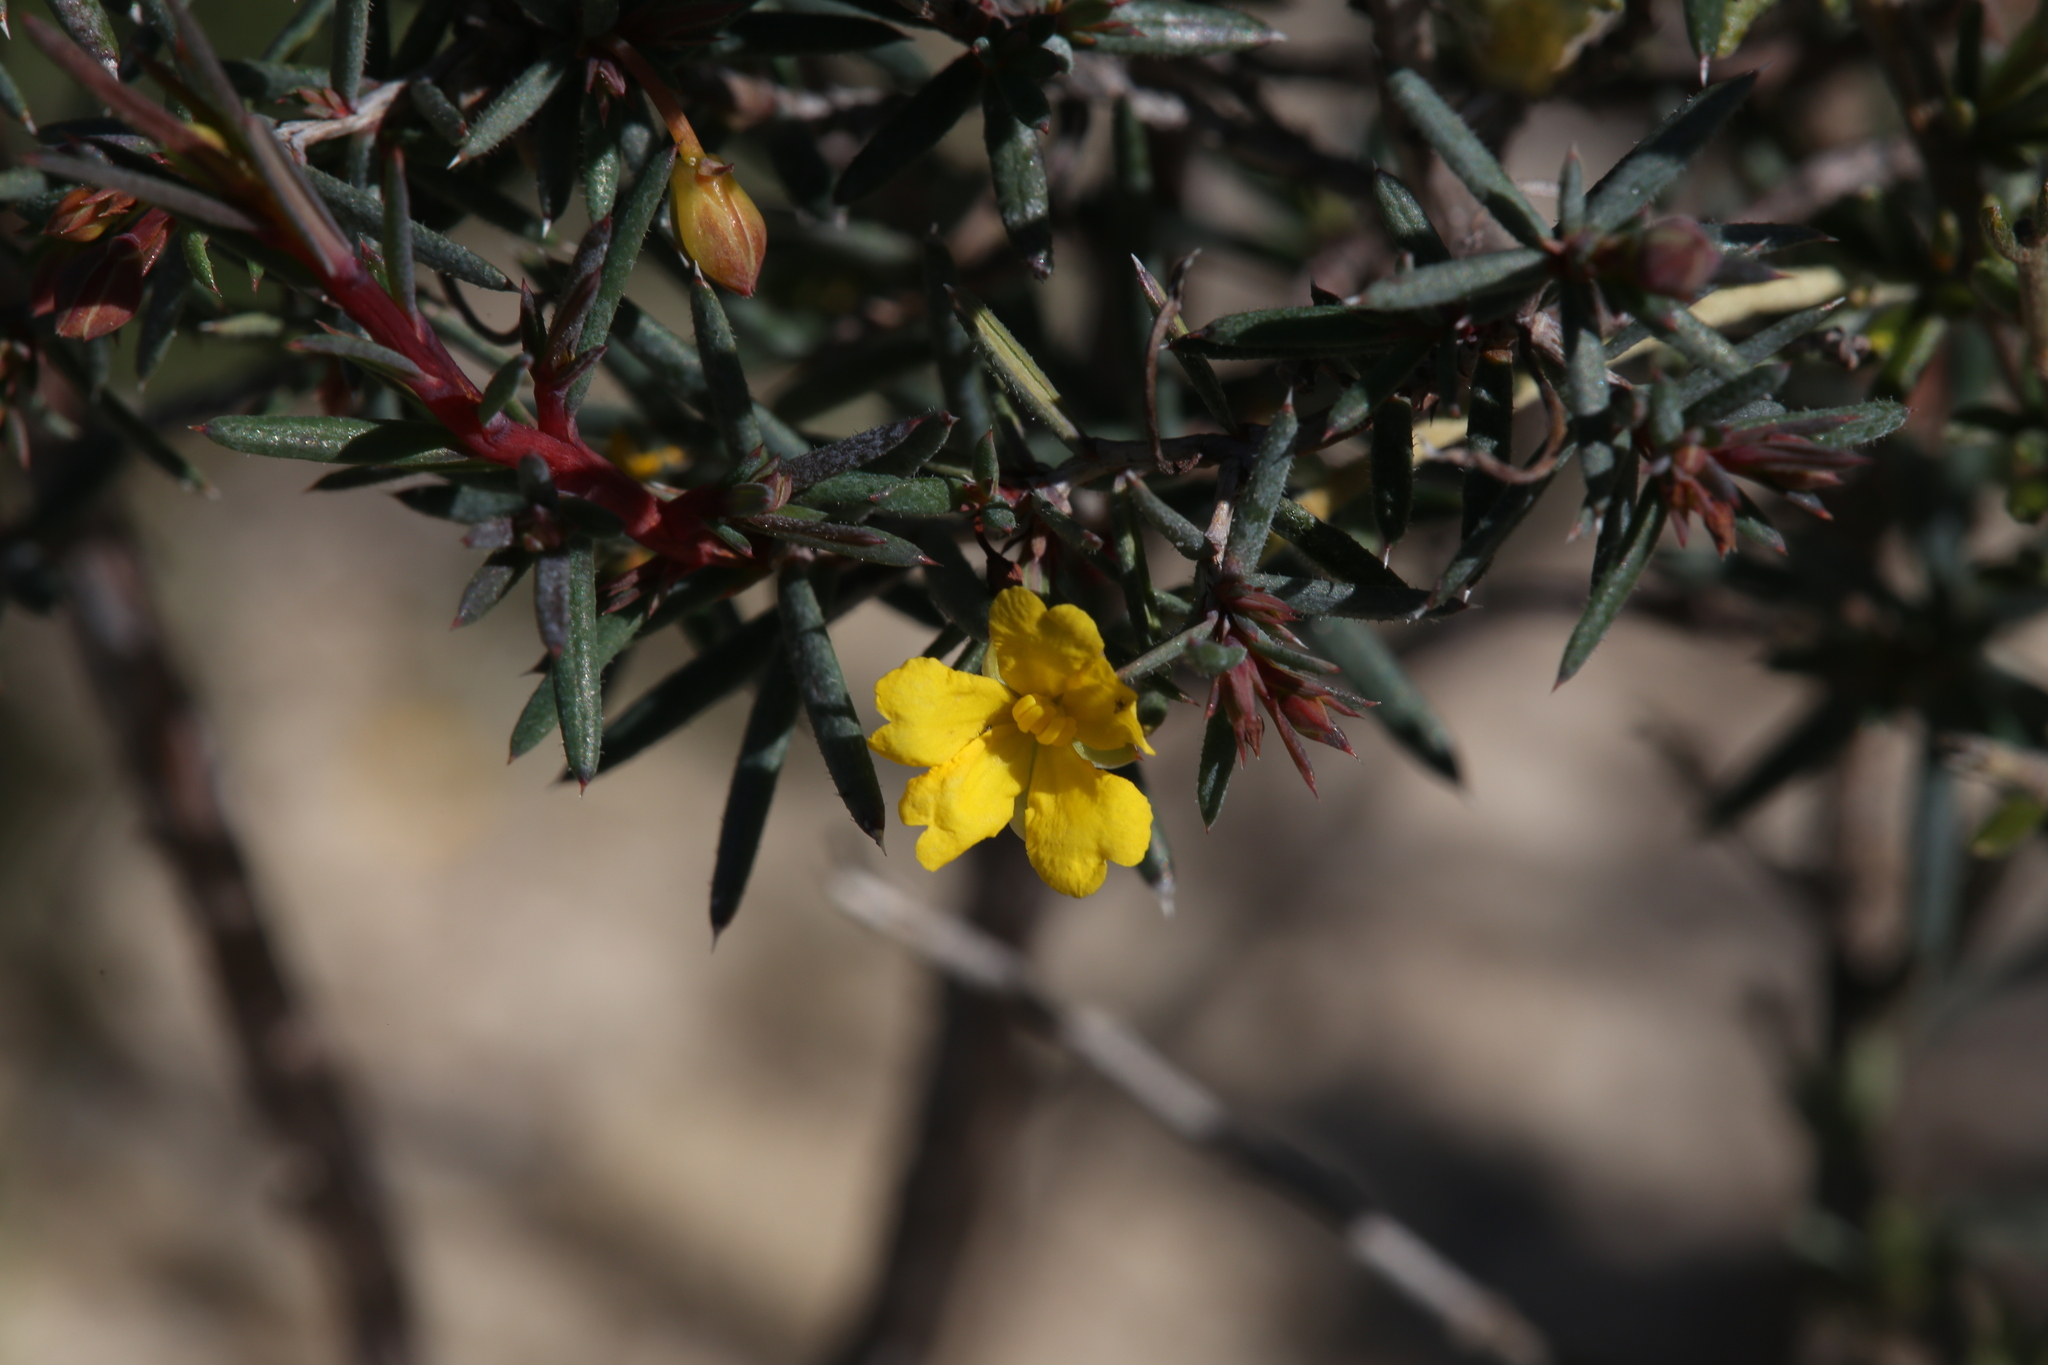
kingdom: Plantae
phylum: Tracheophyta
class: Magnoliopsida
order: Dilleniales
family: Dilleniaceae
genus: Hibbertia
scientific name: Hibbertia
